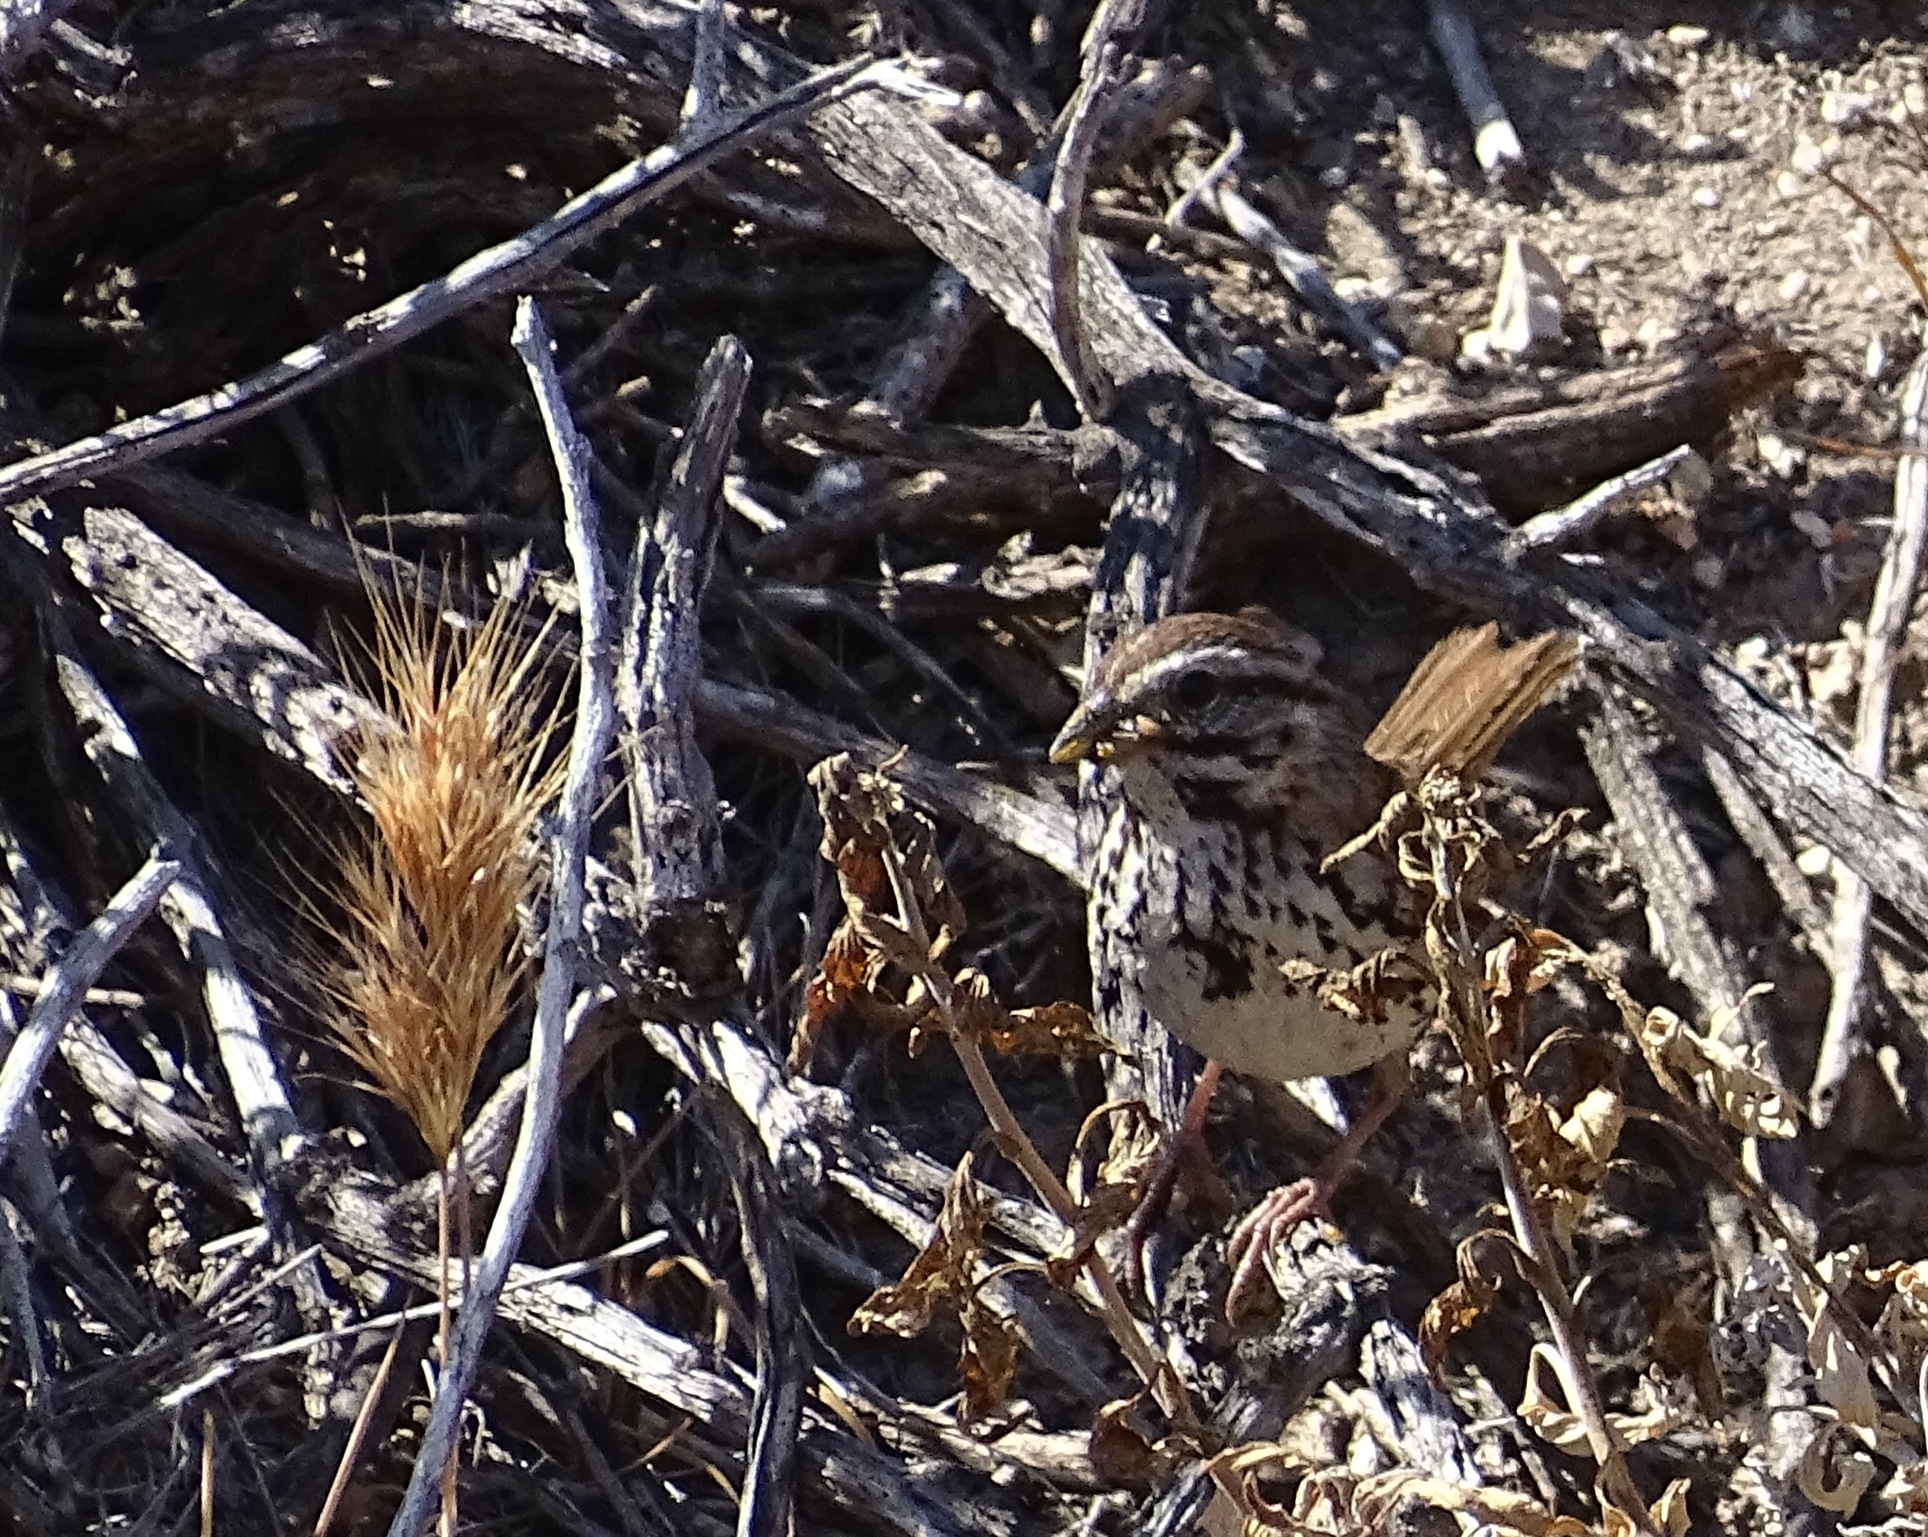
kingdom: Animalia
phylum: Chordata
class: Aves
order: Passeriformes
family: Passerellidae
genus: Melospiza
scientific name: Melospiza melodia
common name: Song sparrow
